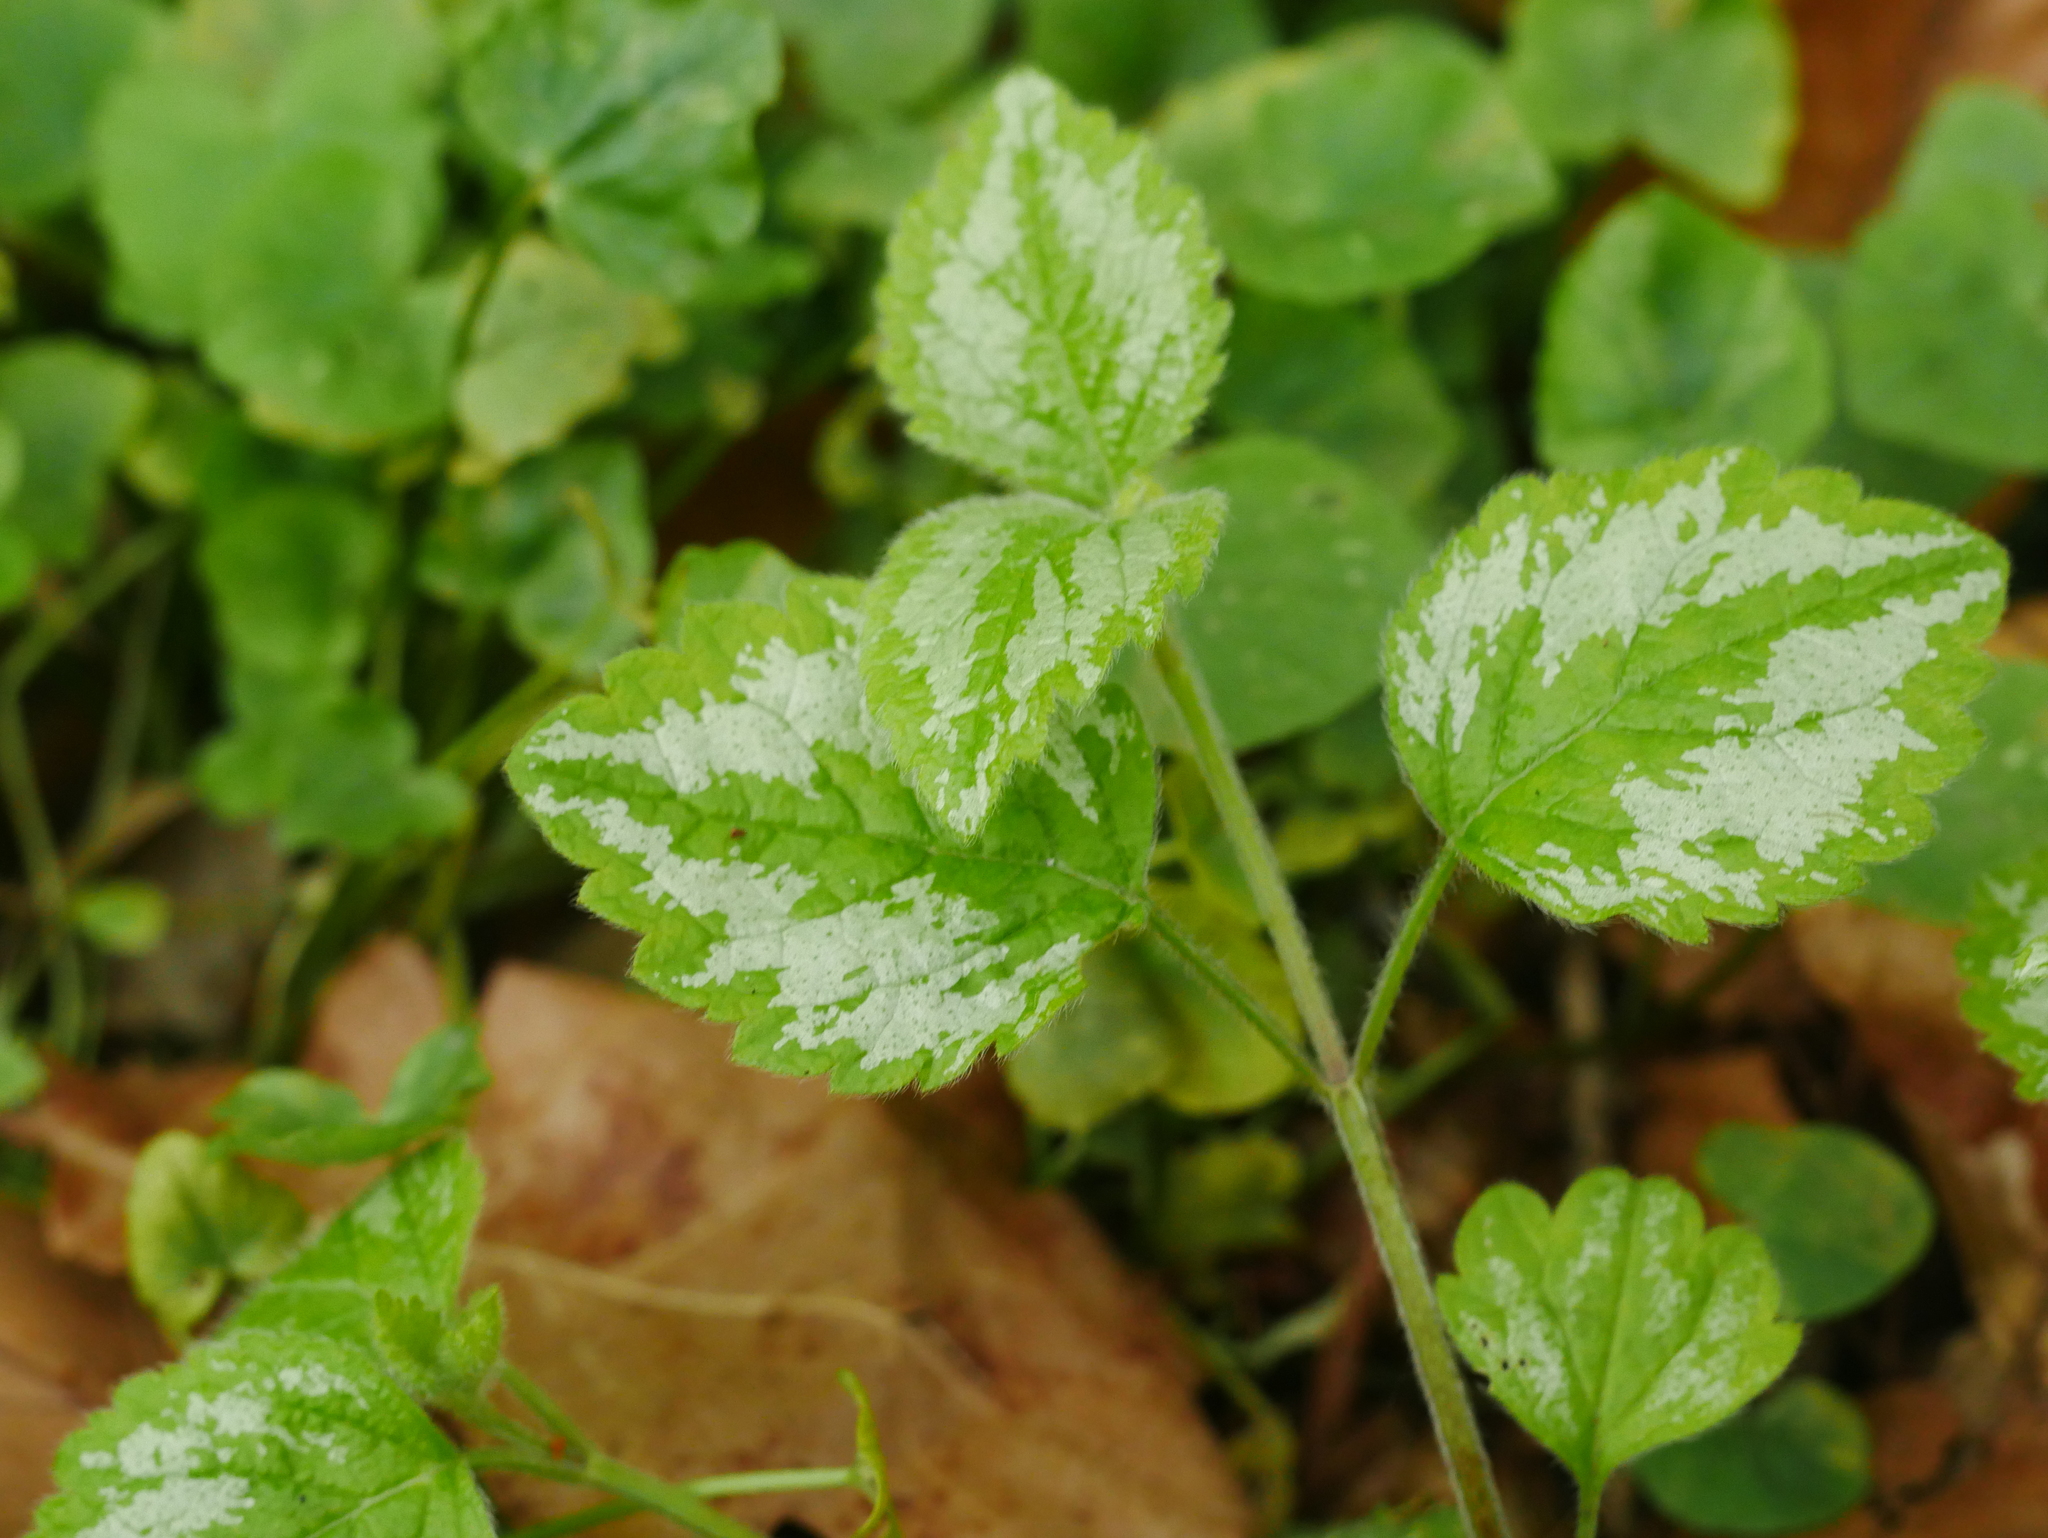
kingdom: Plantae
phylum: Tracheophyta
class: Magnoliopsida
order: Lamiales
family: Lamiaceae
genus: Lamium
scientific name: Lamium galeobdolon
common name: Yellow archangel
